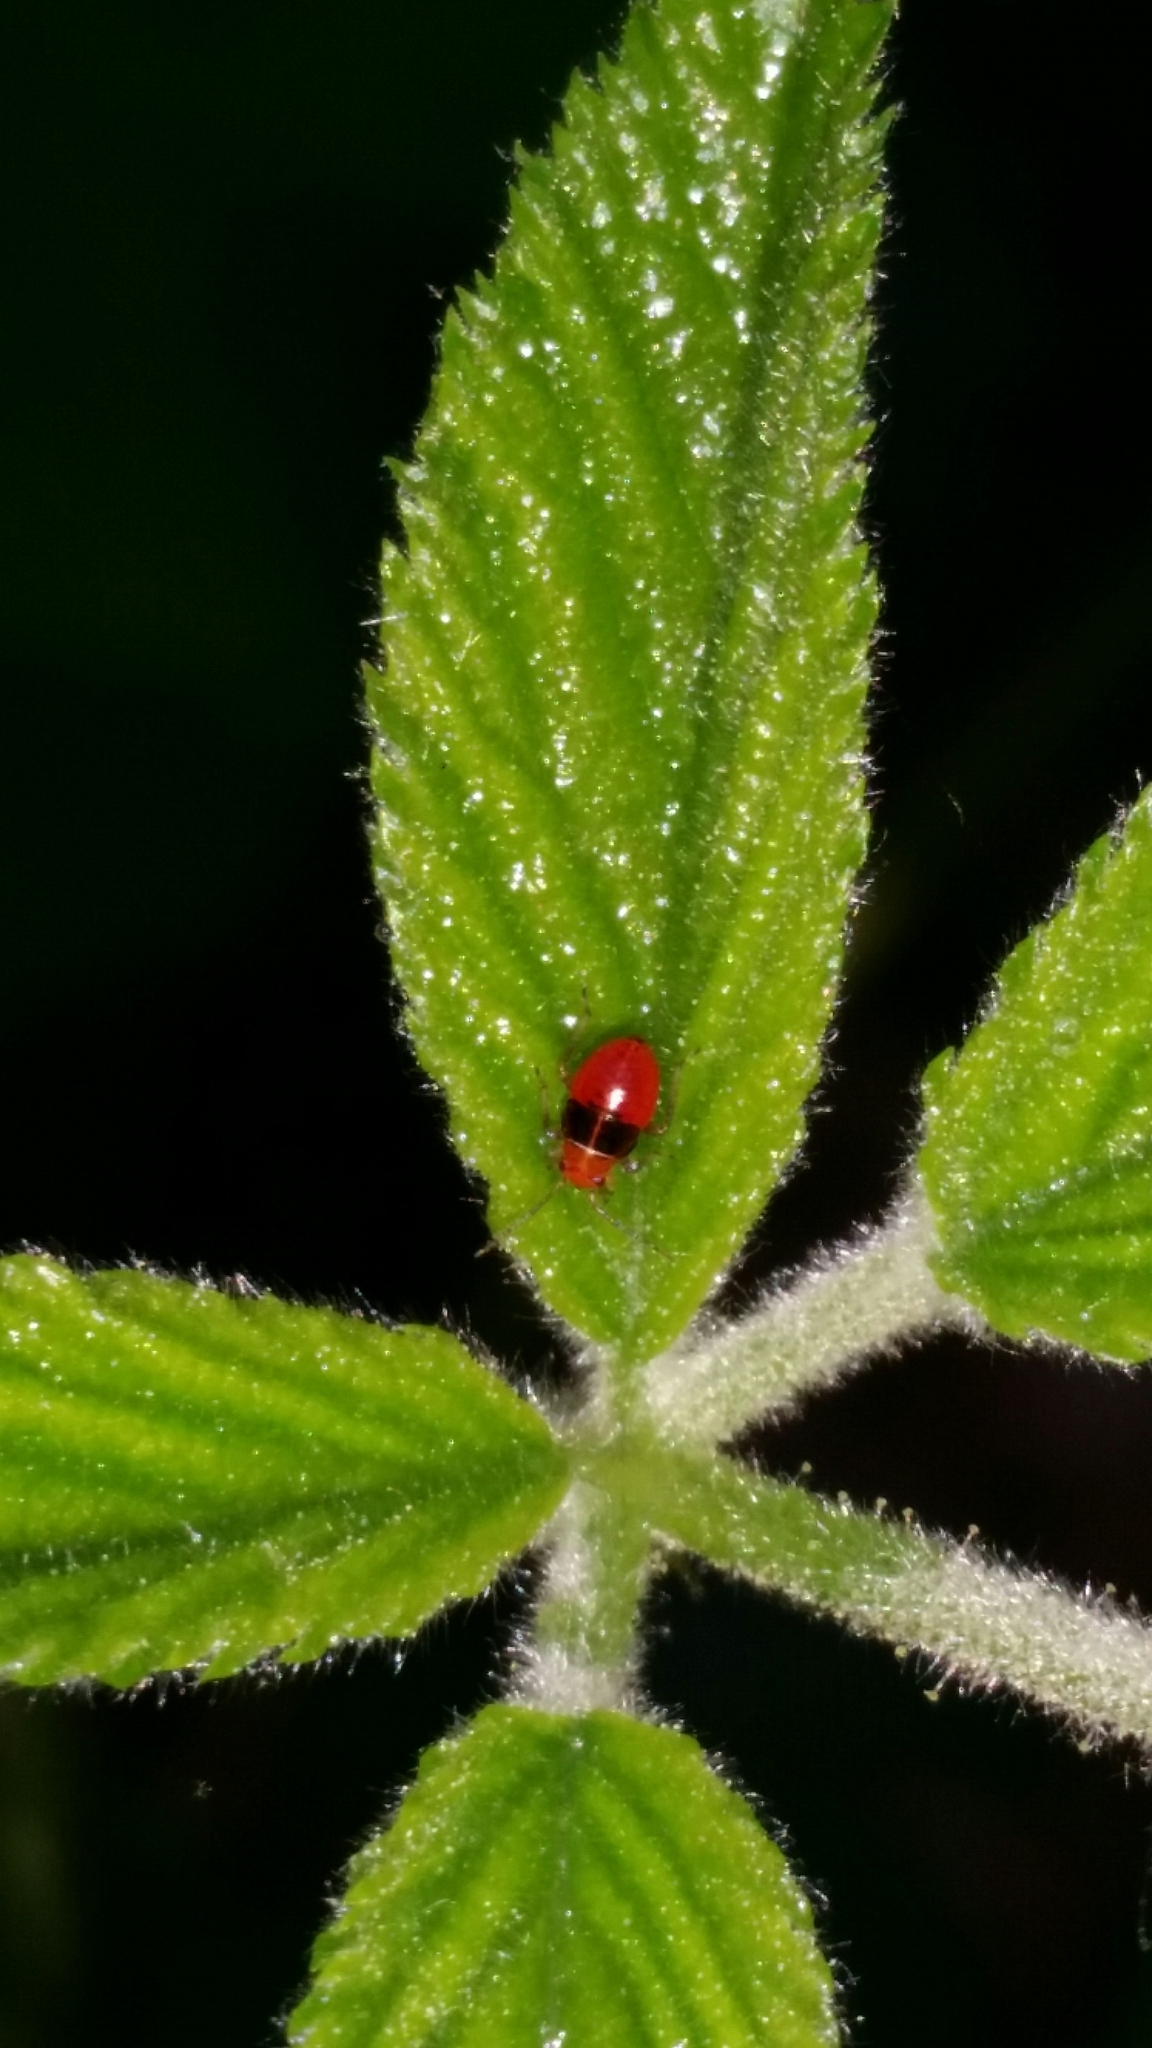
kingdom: Animalia
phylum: Arthropoda
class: Insecta
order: Hemiptera
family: Miridae
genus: Poecilocapsus
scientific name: Poecilocapsus lineatus
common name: Four-lined plant bug
